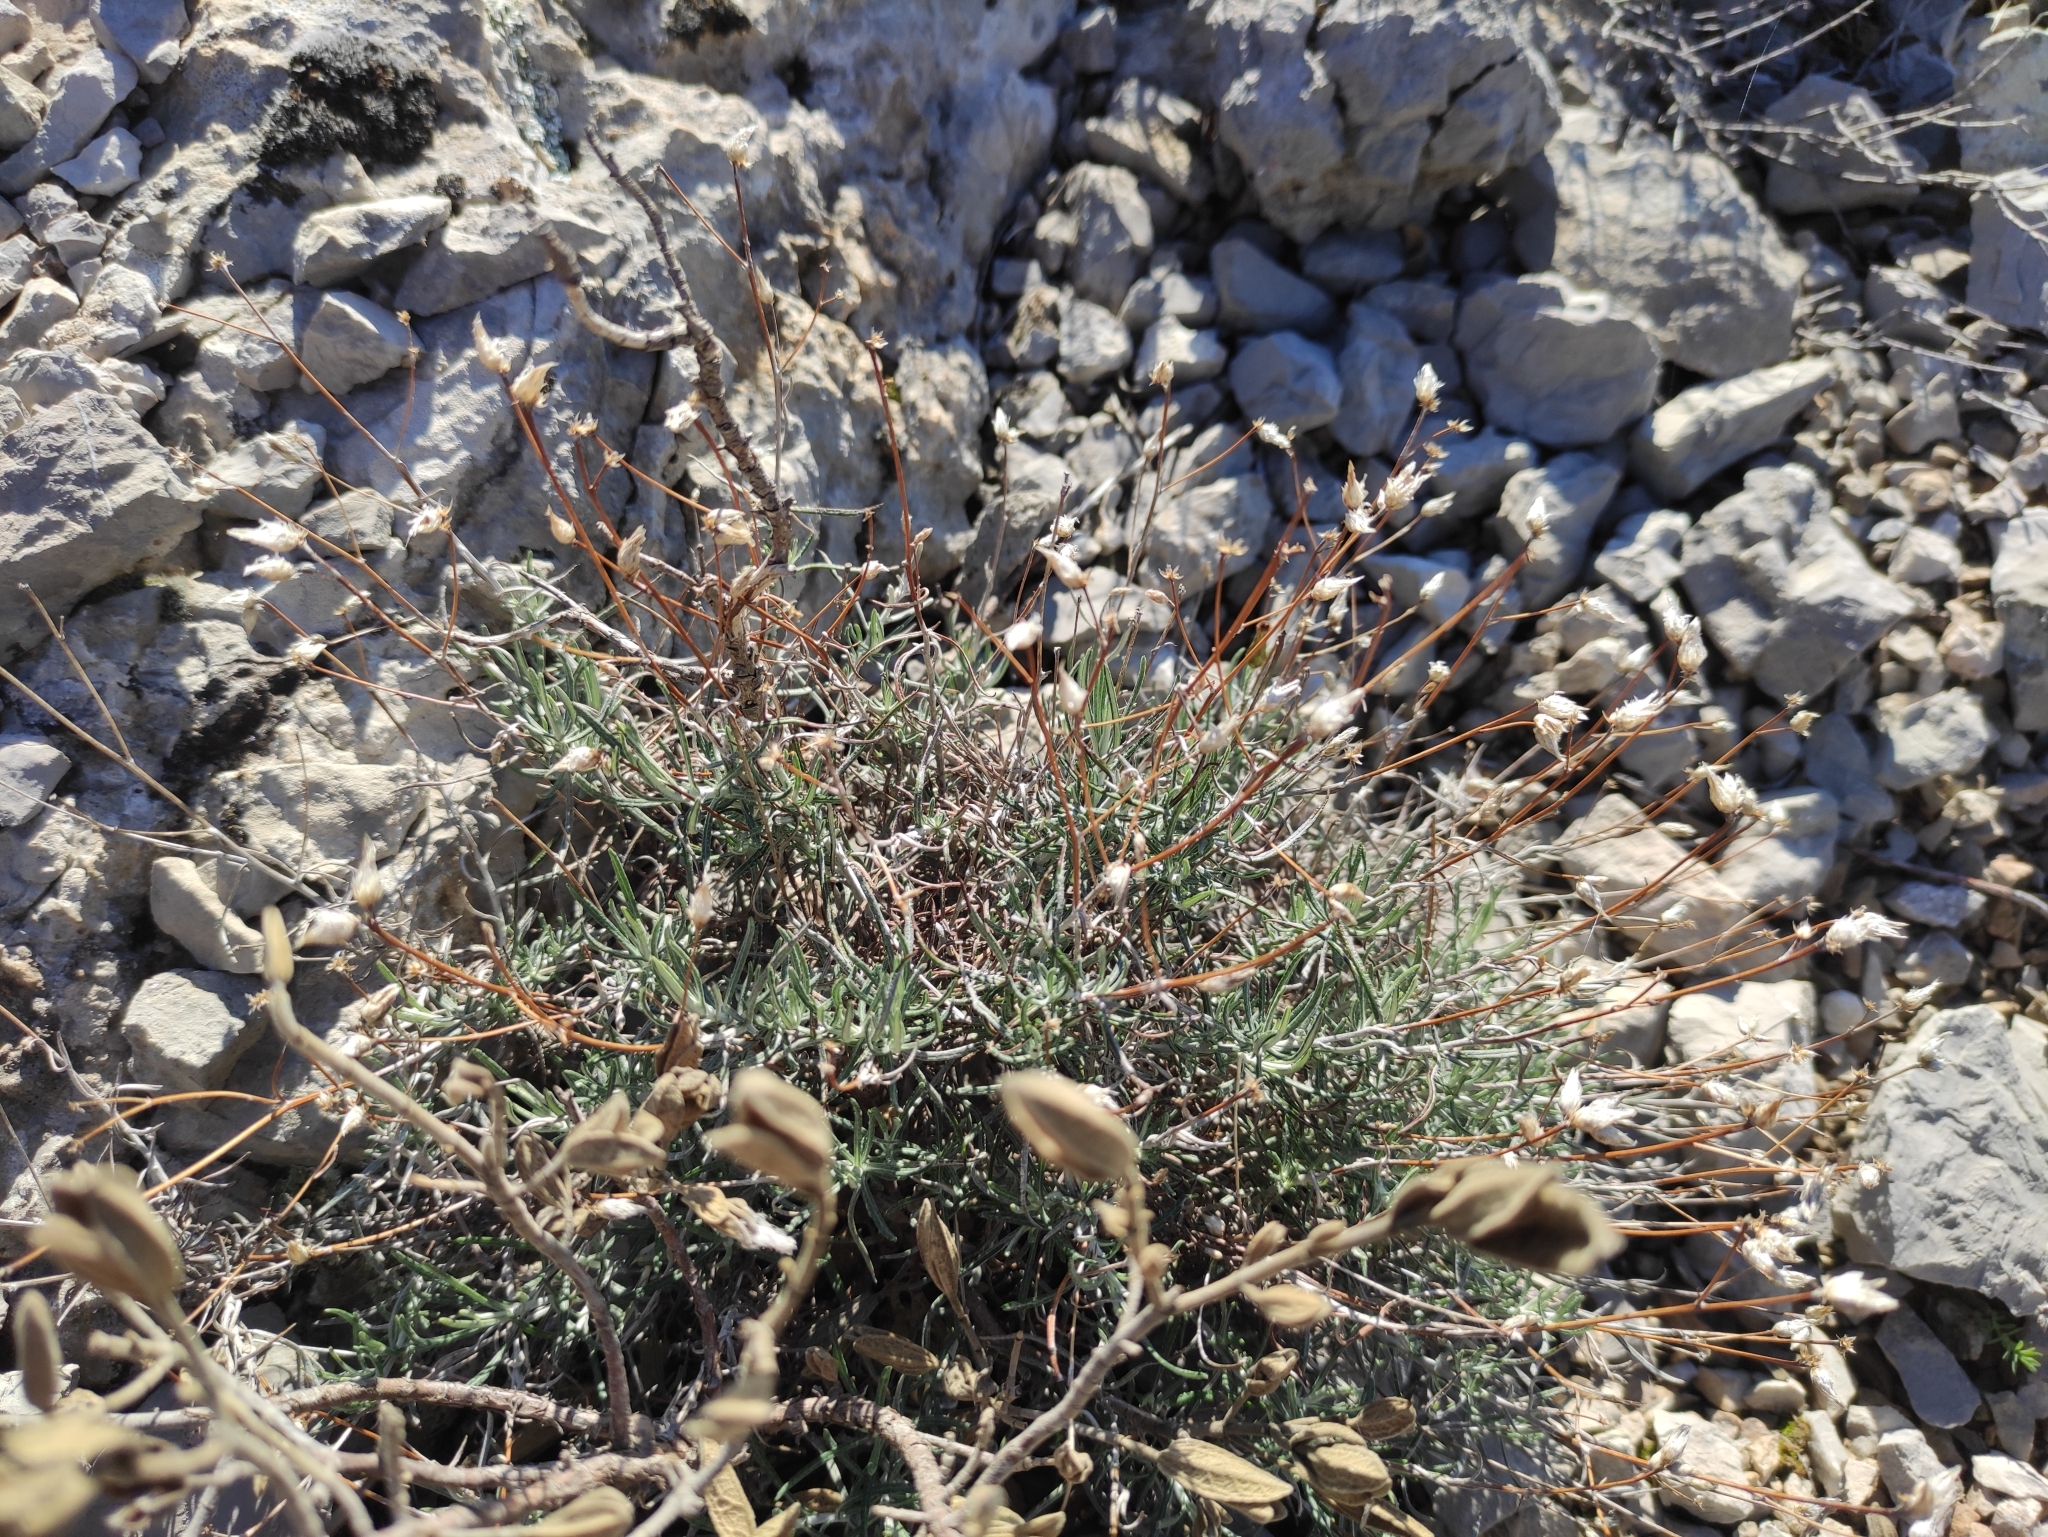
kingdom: Plantae
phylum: Tracheophyta
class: Magnoliopsida
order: Asterales
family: Asteraceae
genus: Phagnalon
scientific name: Phagnalon sordidum
